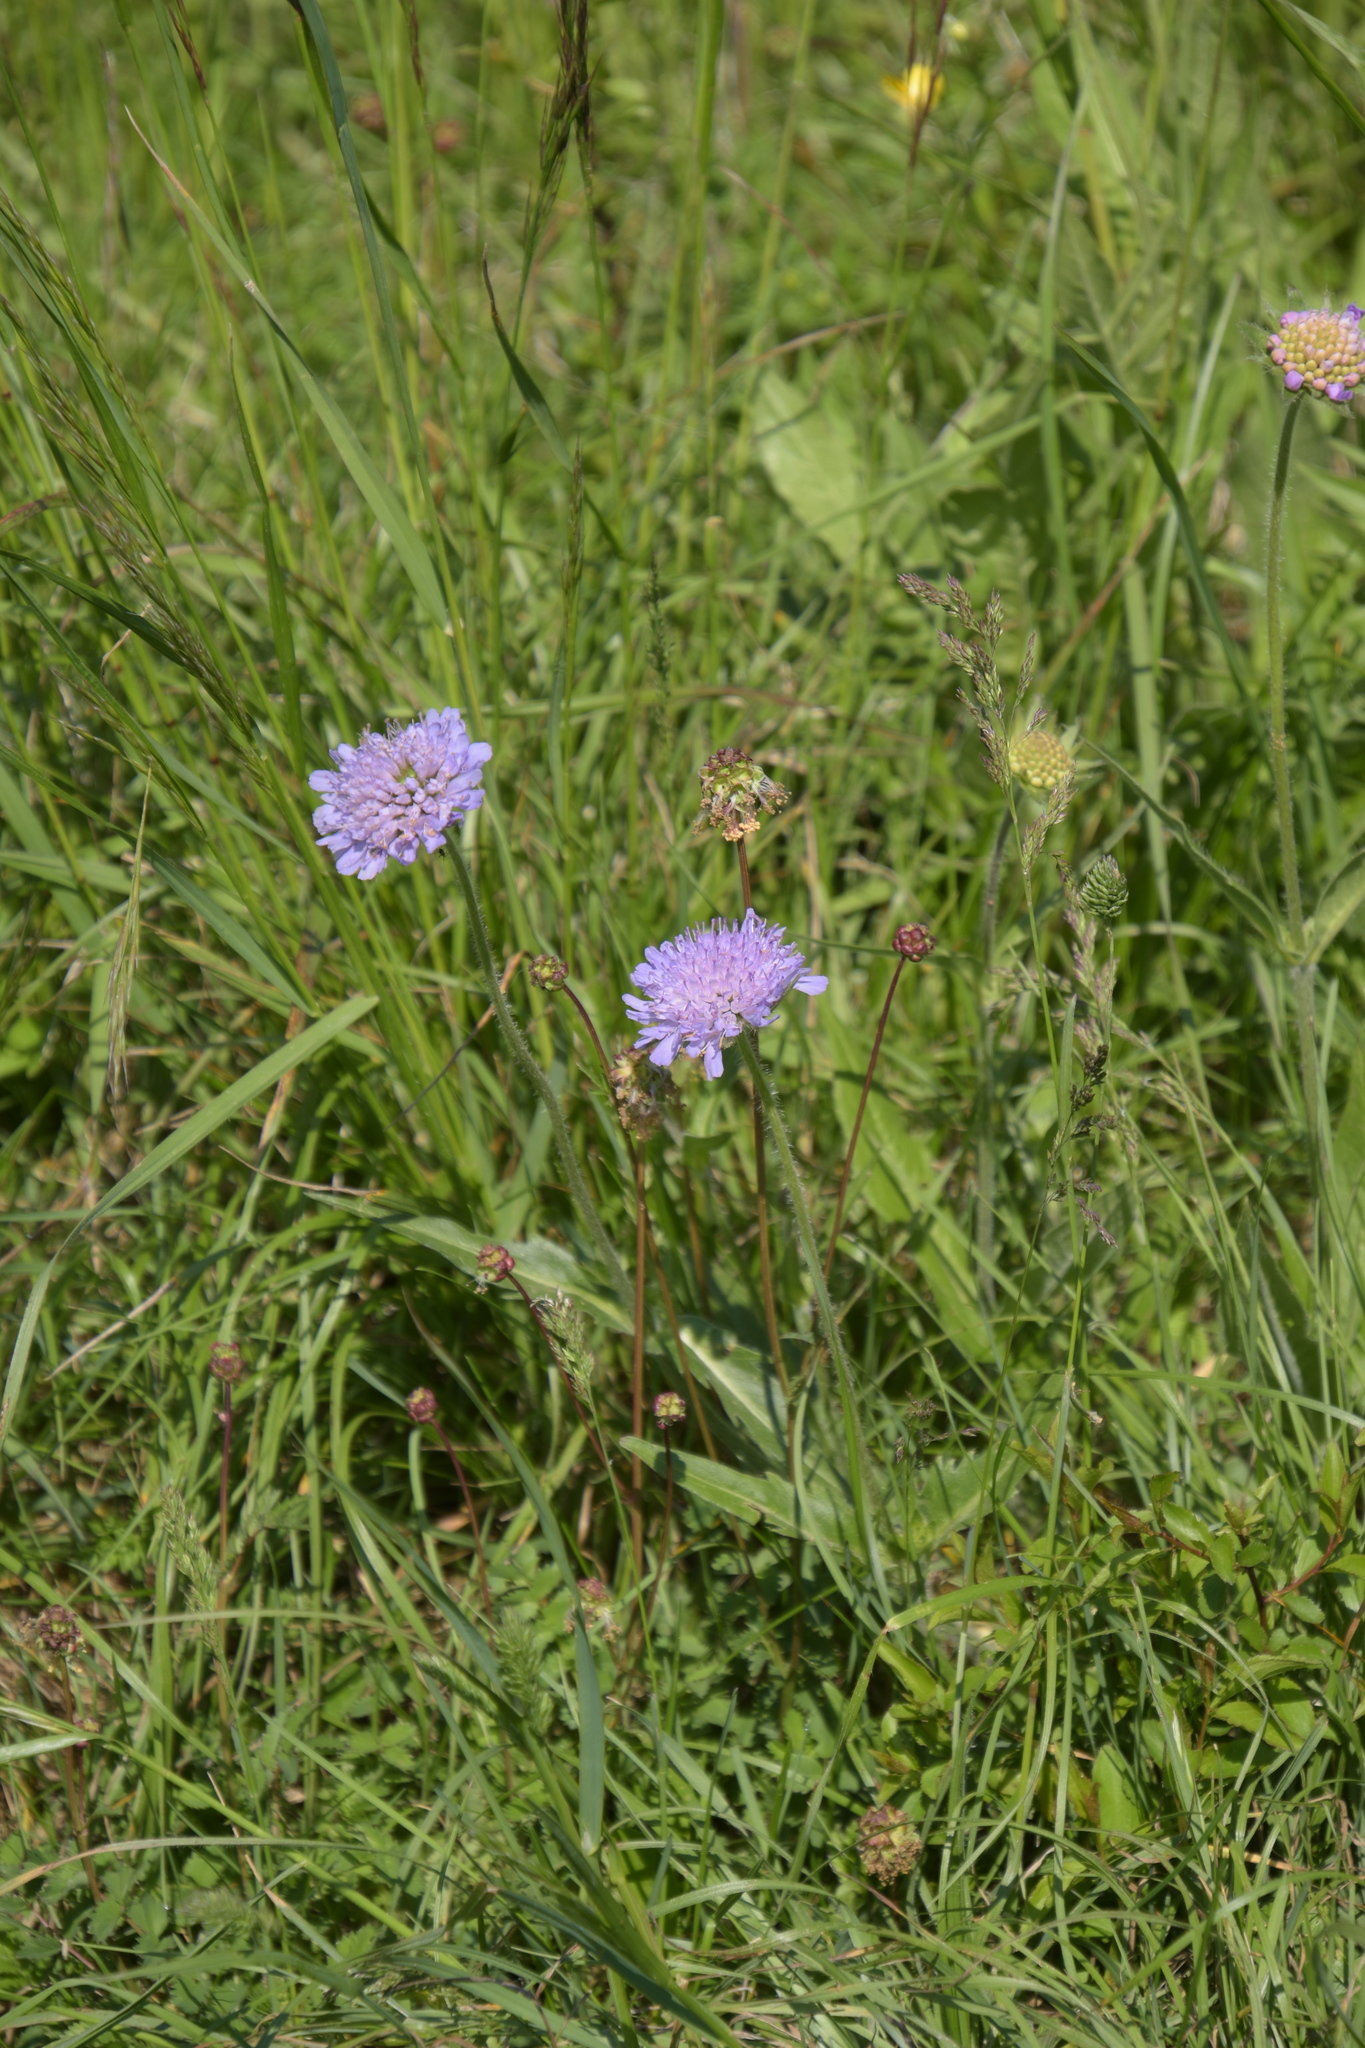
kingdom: Plantae
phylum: Tracheophyta
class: Magnoliopsida
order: Dipsacales
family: Caprifoliaceae
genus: Knautia
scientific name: Knautia arvensis
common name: Field scabiosa
